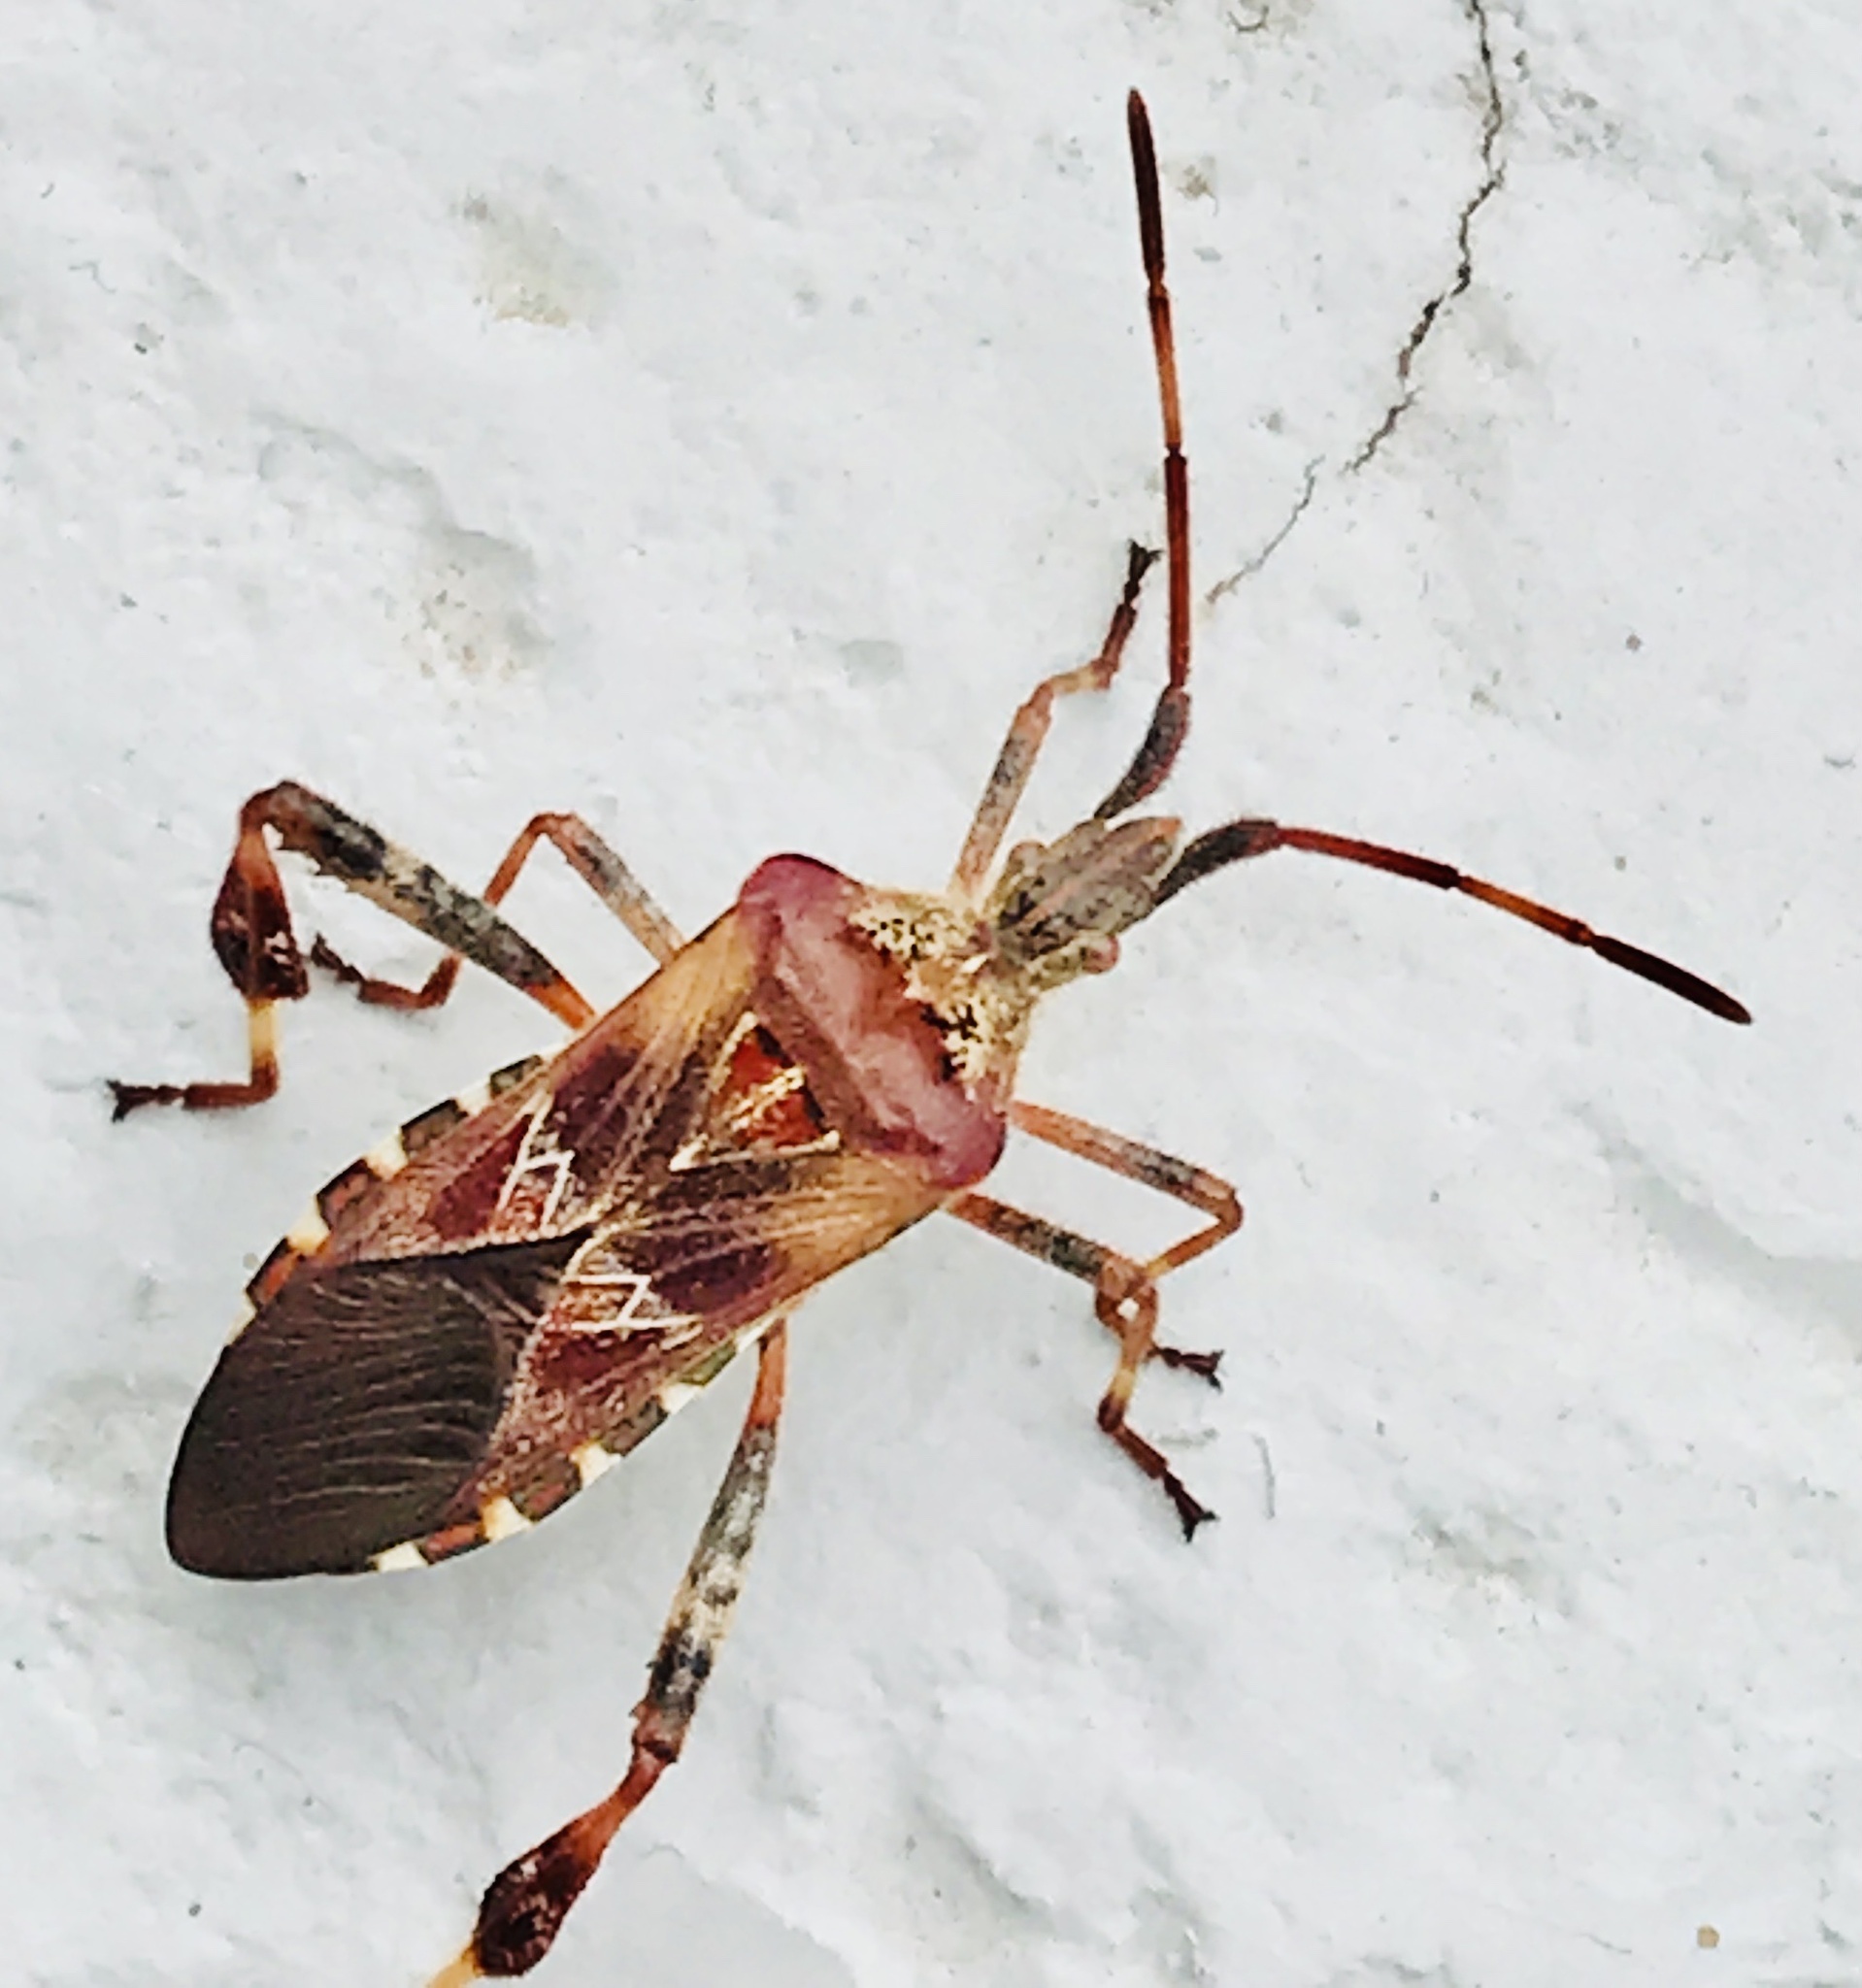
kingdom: Animalia
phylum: Arthropoda
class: Insecta
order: Hemiptera
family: Coreidae
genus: Leptoglossus
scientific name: Leptoglossus occidentalis
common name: Western conifer-seed bug
